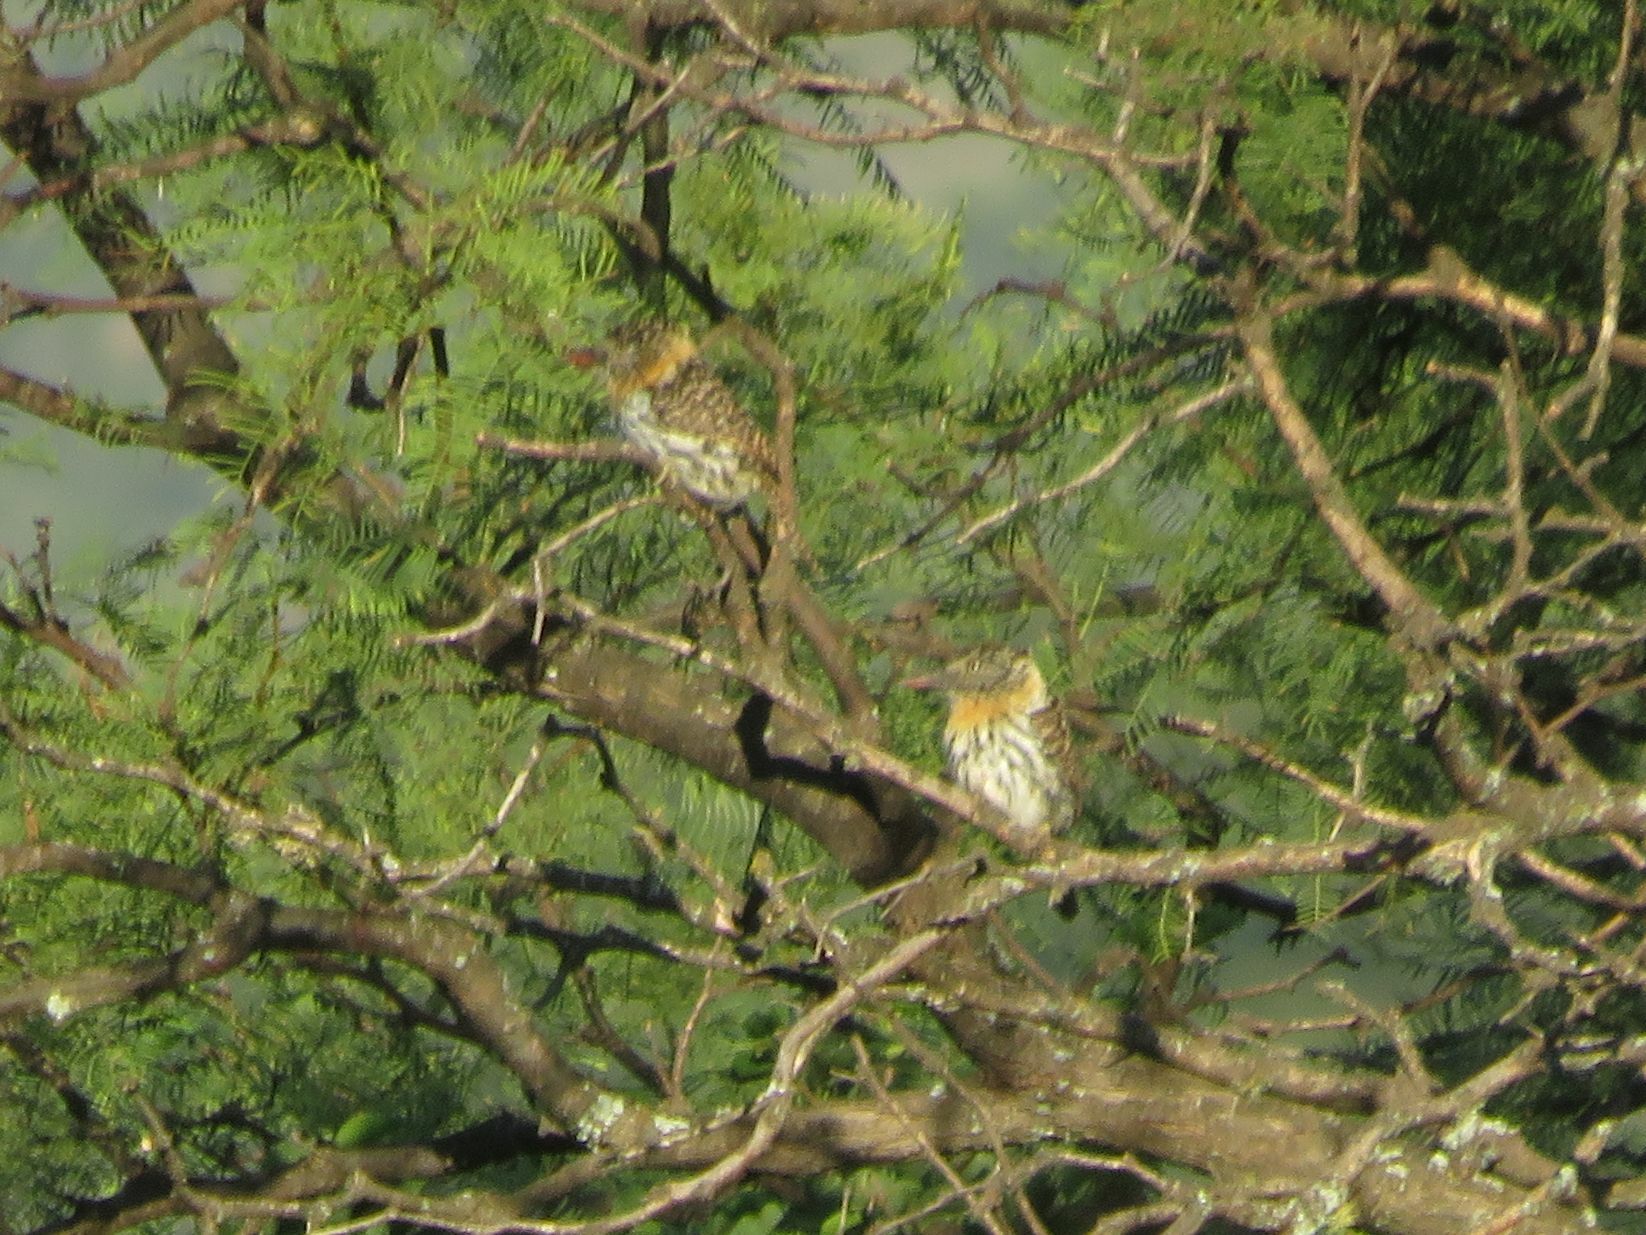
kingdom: Animalia
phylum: Chordata
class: Aves
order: Piciformes
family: Bucconidae
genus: Nystalus
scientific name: Nystalus maculatus
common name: Caatinga puffbird
